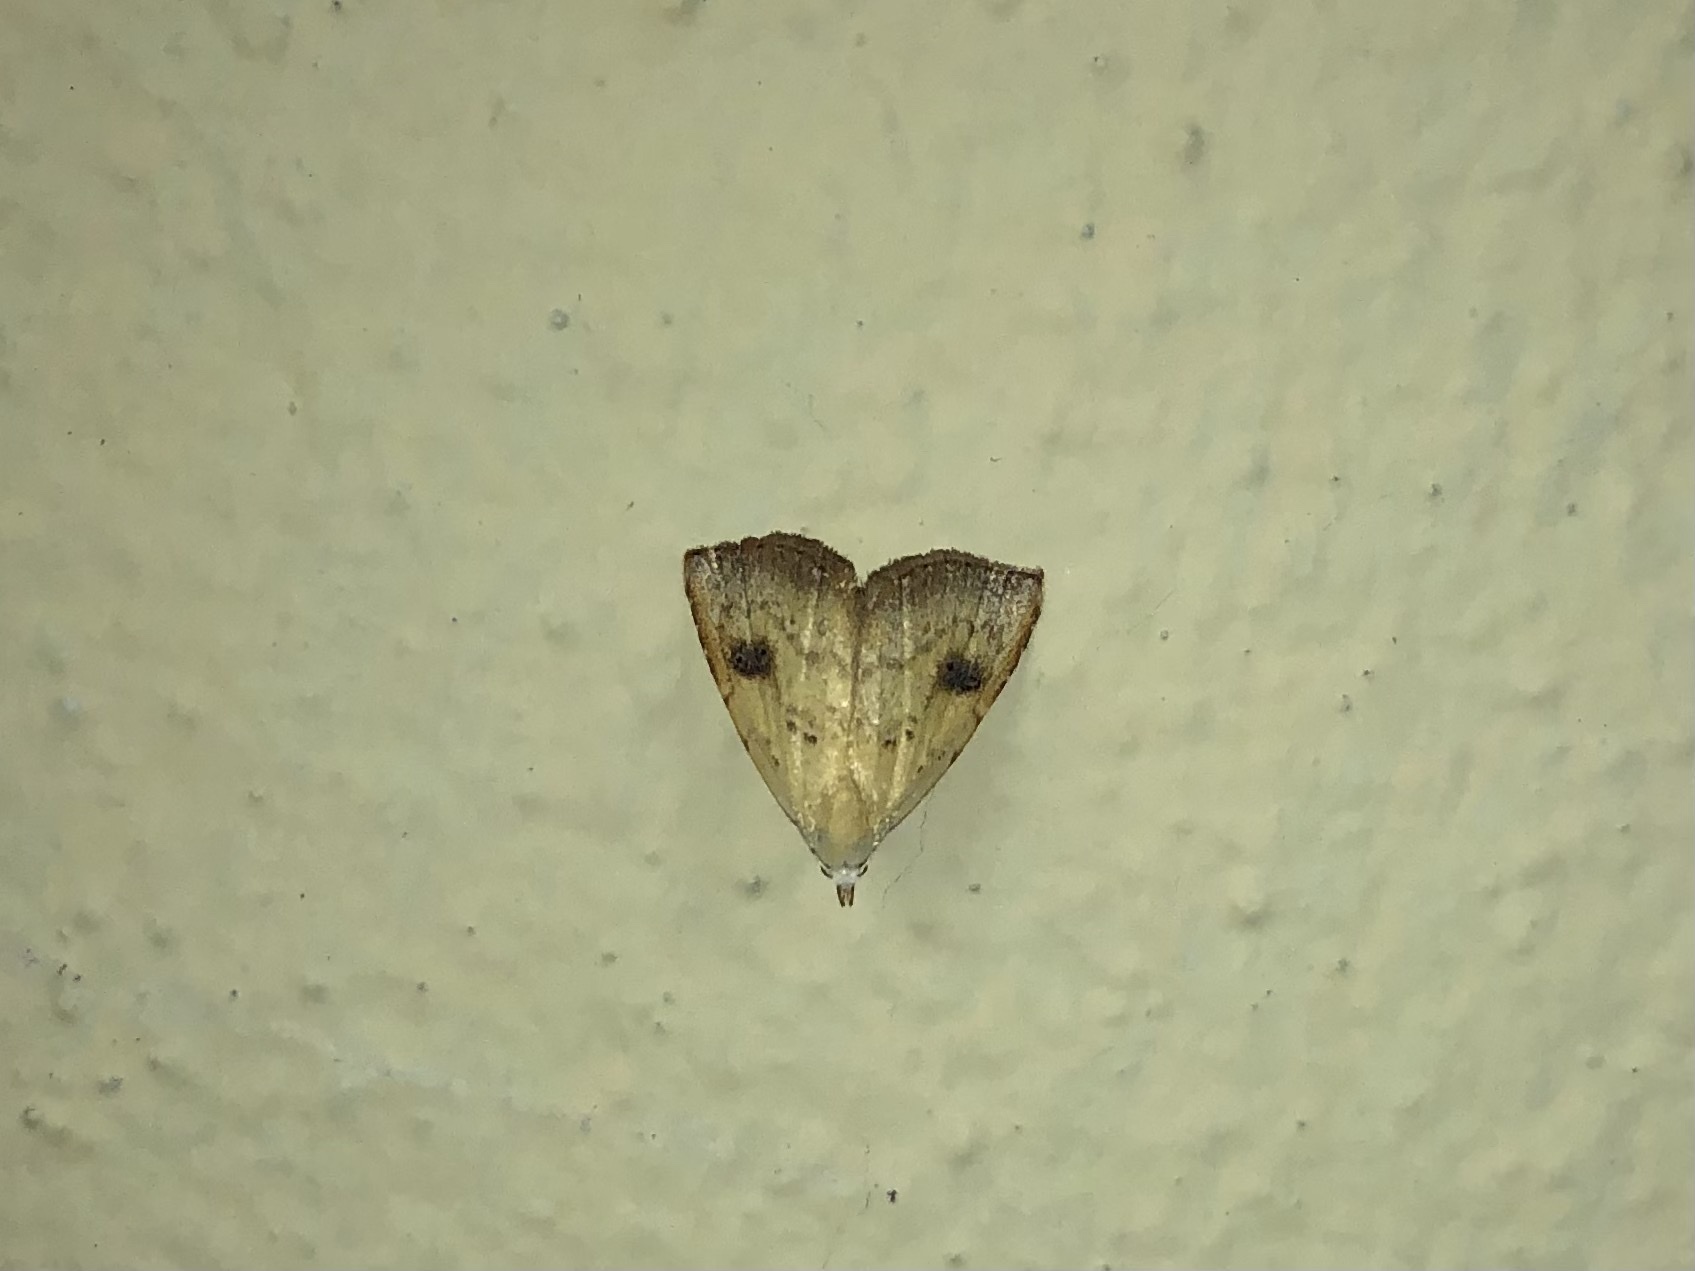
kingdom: Animalia
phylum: Arthropoda
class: Insecta
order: Lepidoptera
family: Erebidae
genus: Rivula
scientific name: Rivula sericealis
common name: Straw dot
